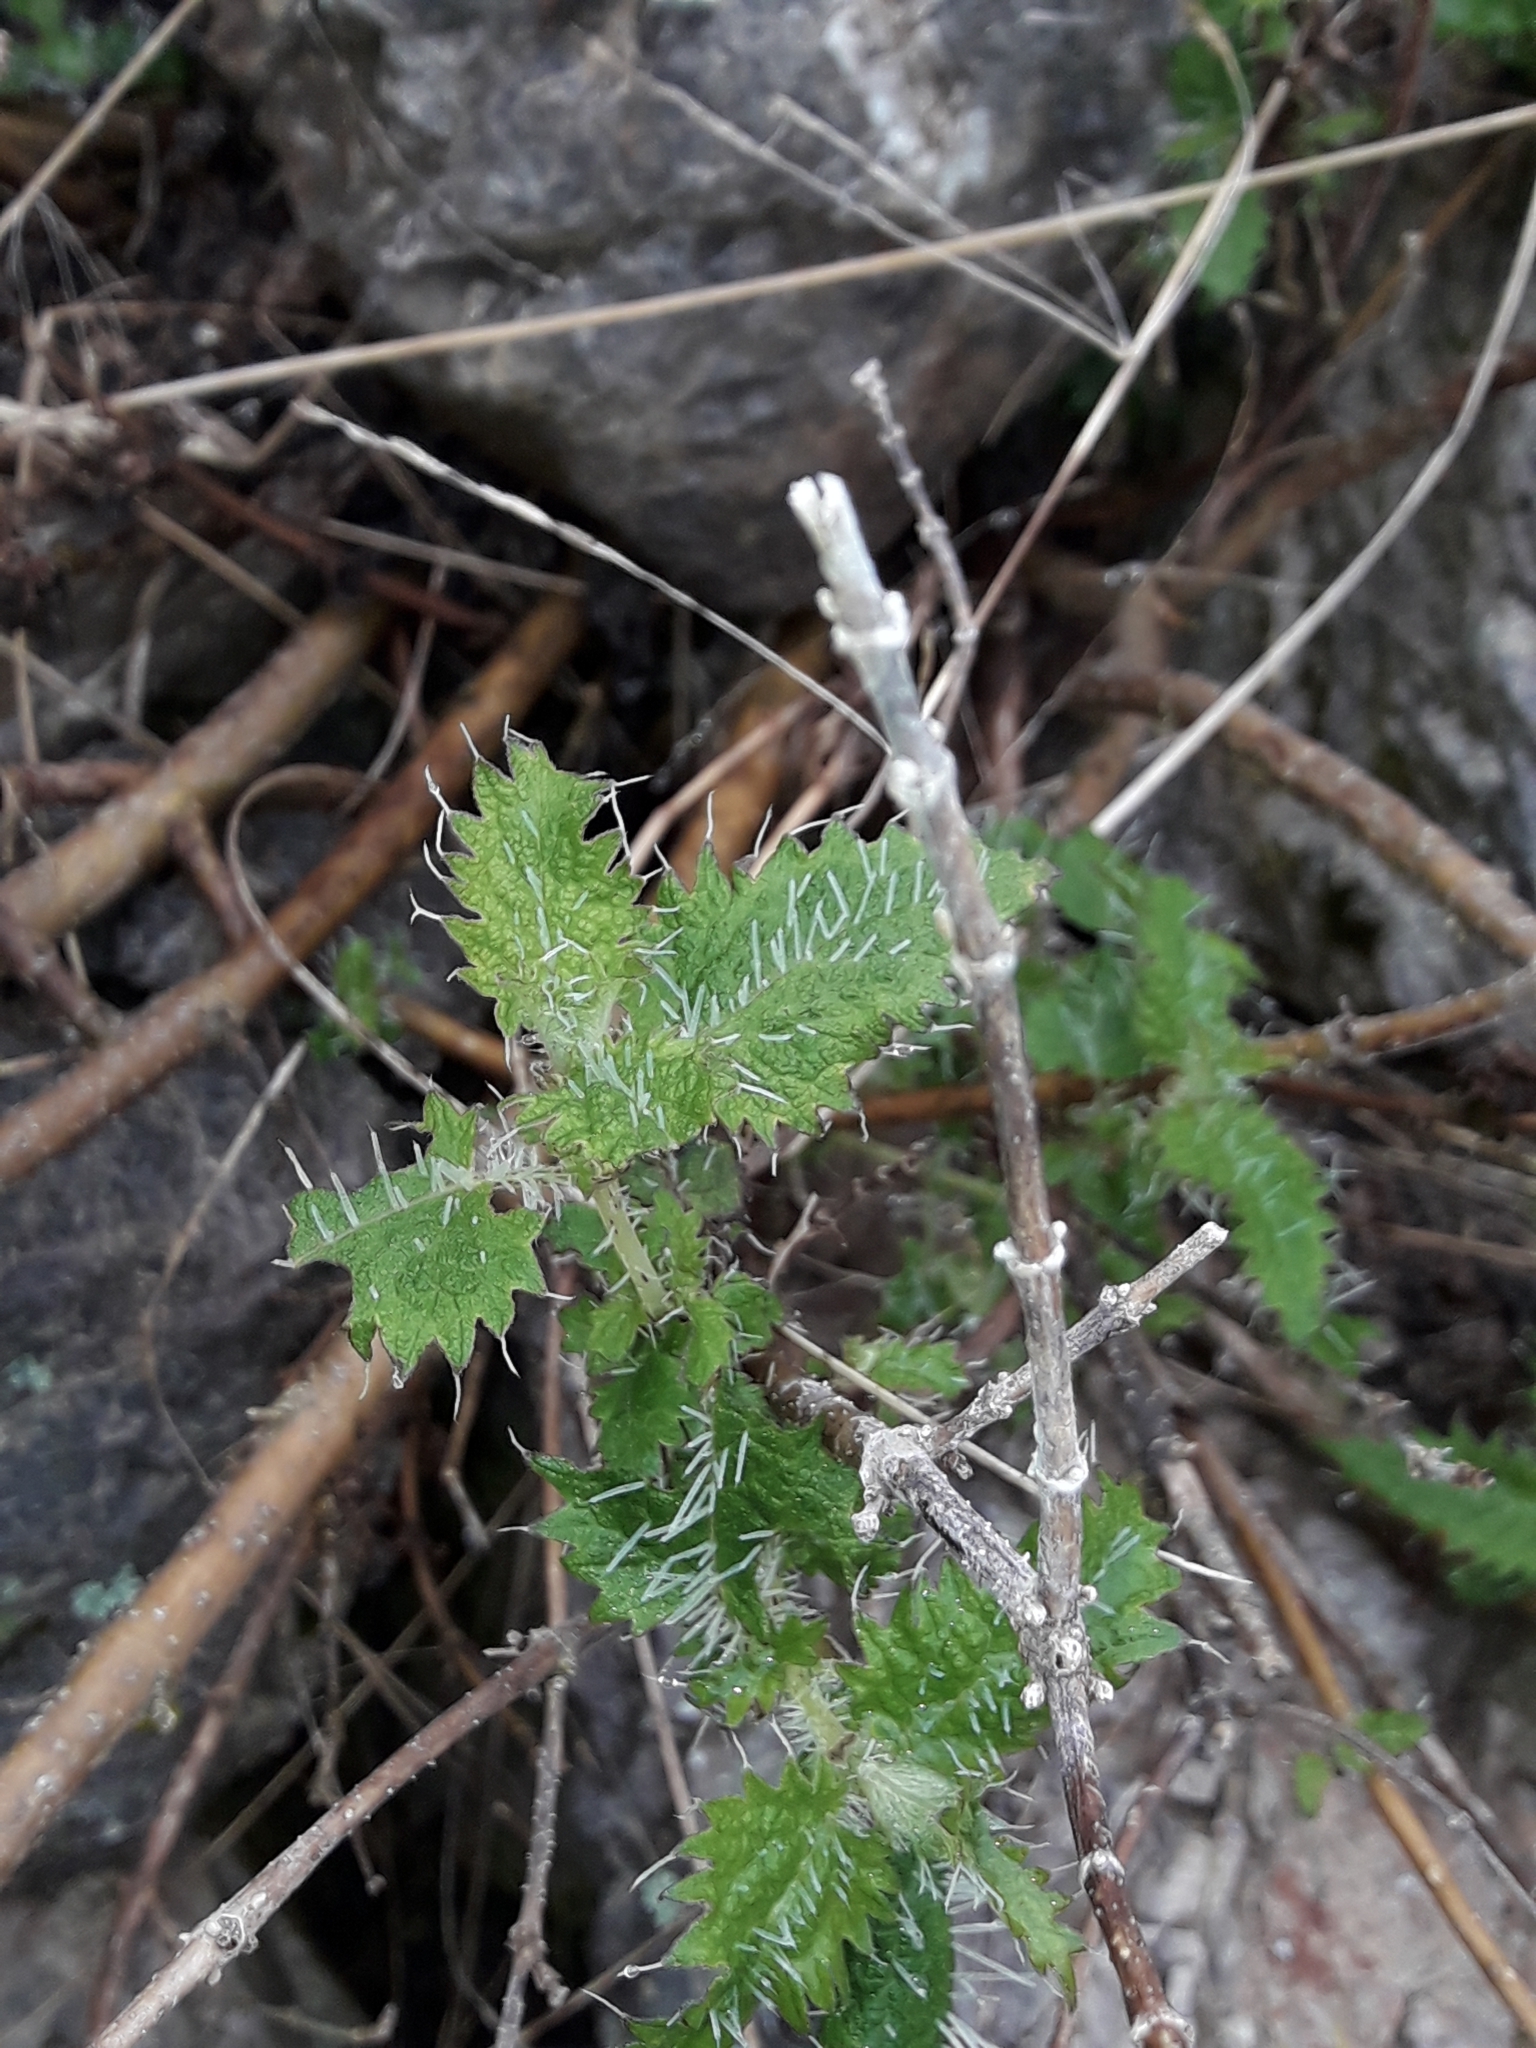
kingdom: Plantae
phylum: Tracheophyta
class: Magnoliopsida
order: Rosales
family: Urticaceae
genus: Urtica
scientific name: Urtica ferox
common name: Tree nettle
